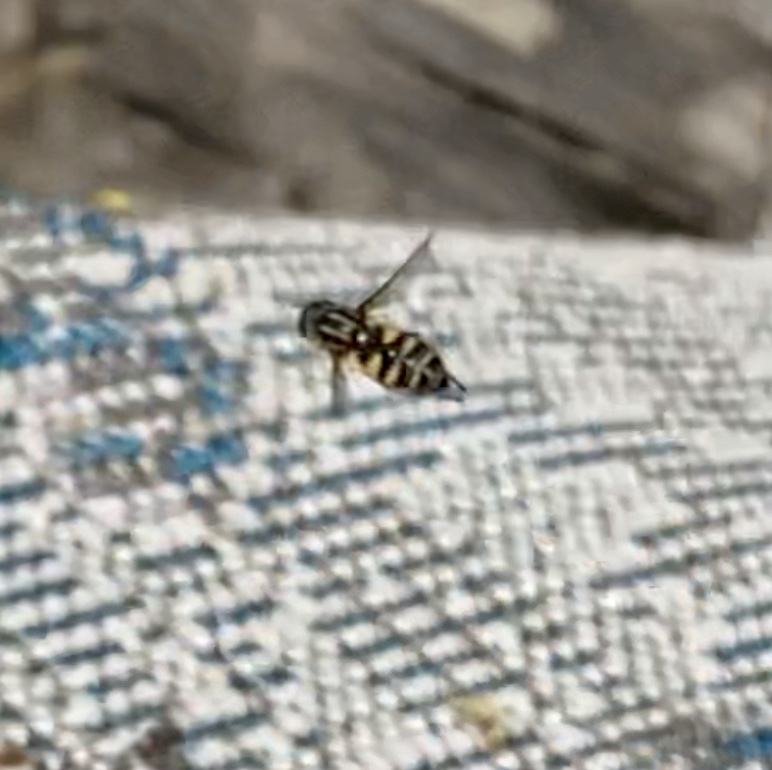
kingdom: Animalia
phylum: Arthropoda
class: Insecta
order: Diptera
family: Syrphidae
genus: Helophilus
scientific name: Helophilus fasciatus
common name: Narrow-headed marsh fly
